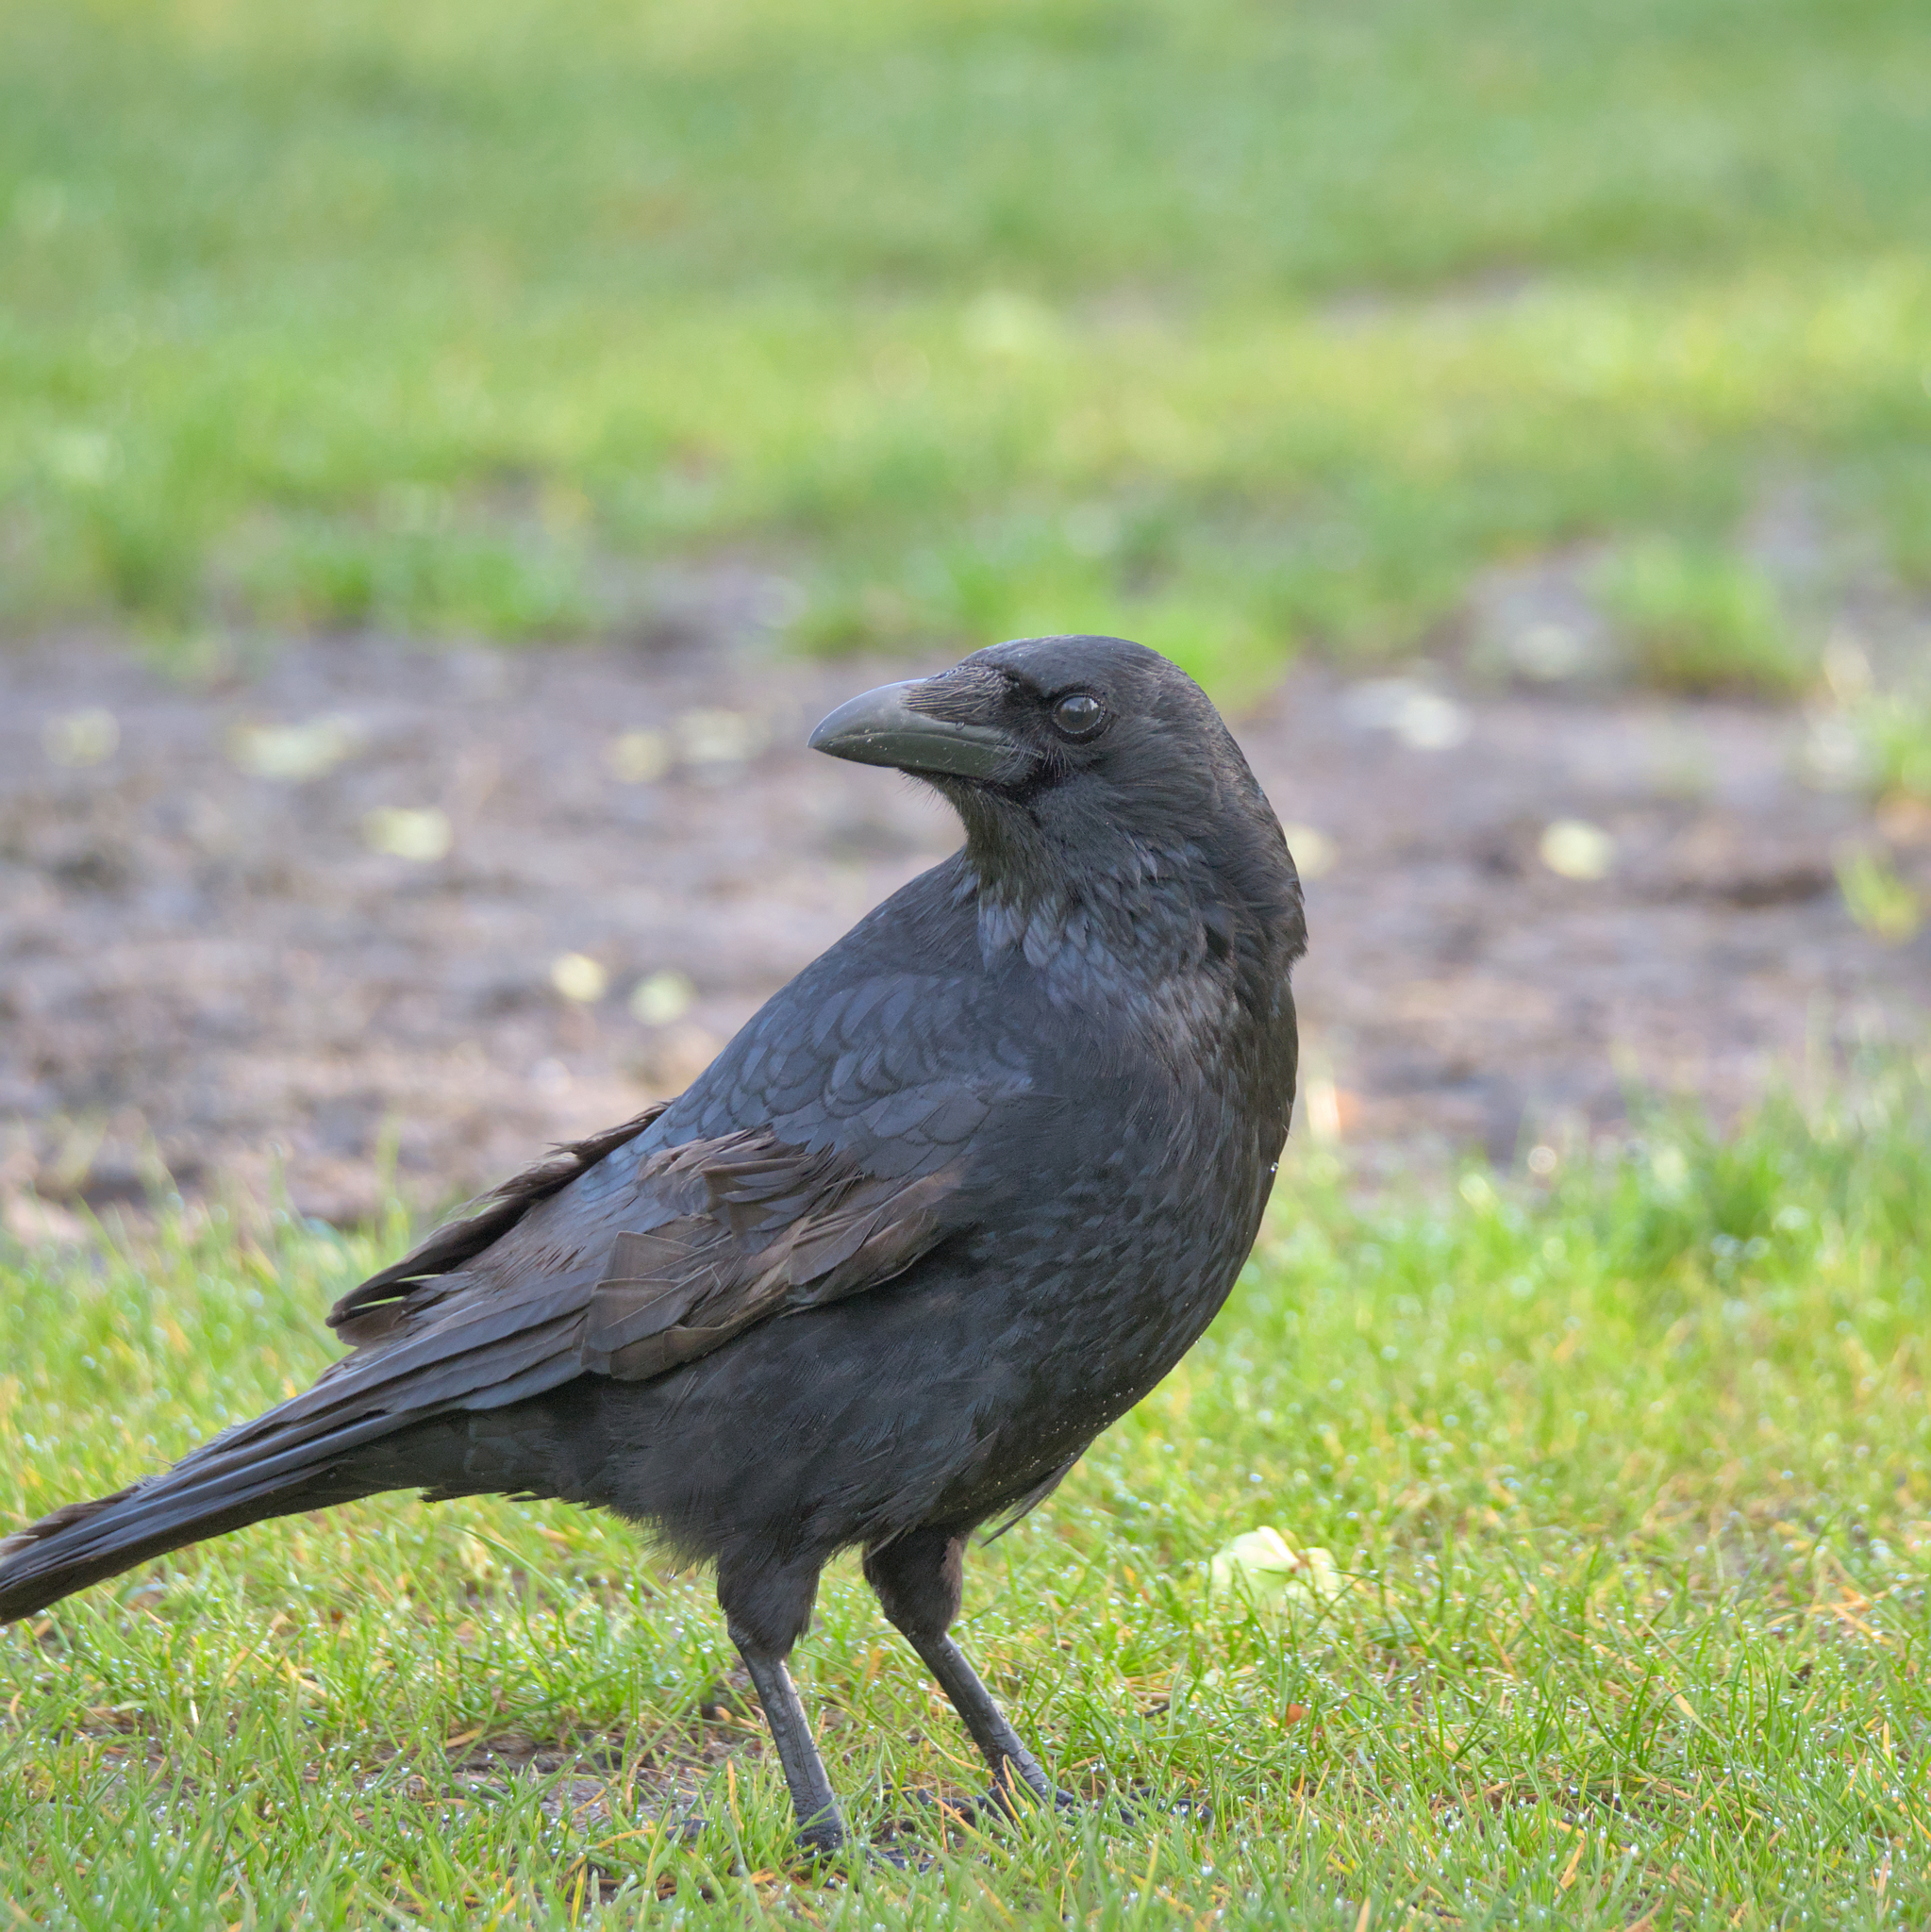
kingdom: Animalia
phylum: Chordata
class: Aves
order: Passeriformes
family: Corvidae
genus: Corvus
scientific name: Corvus corone
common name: Carrion crow
